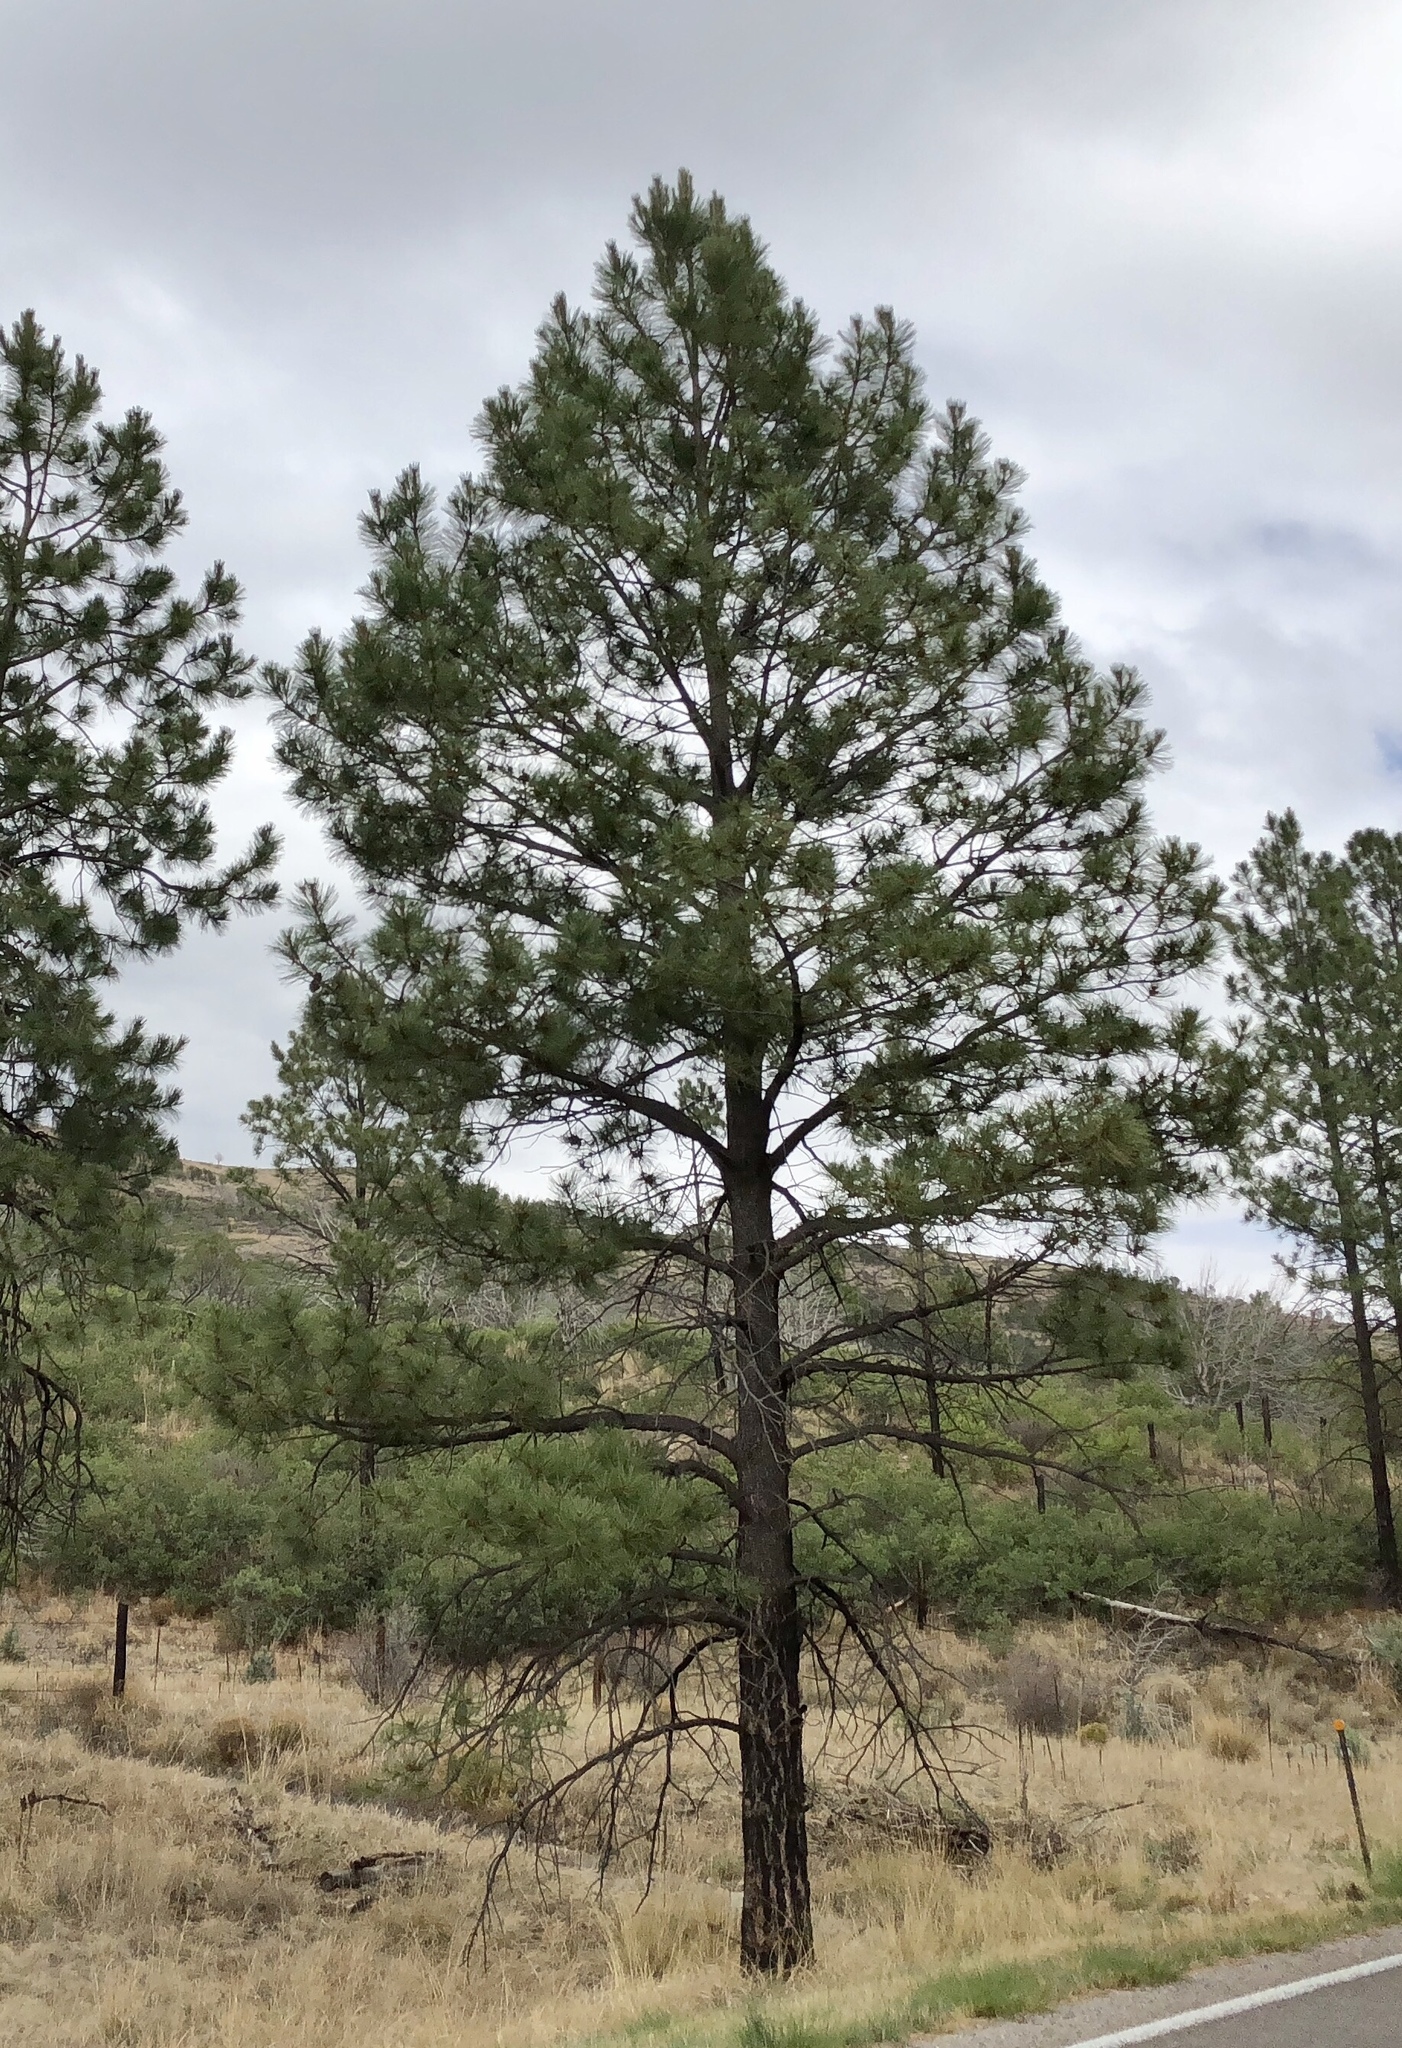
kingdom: Plantae
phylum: Tracheophyta
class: Pinopsida
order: Pinales
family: Pinaceae
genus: Pinus
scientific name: Pinus ponderosa
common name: Western yellow-pine
